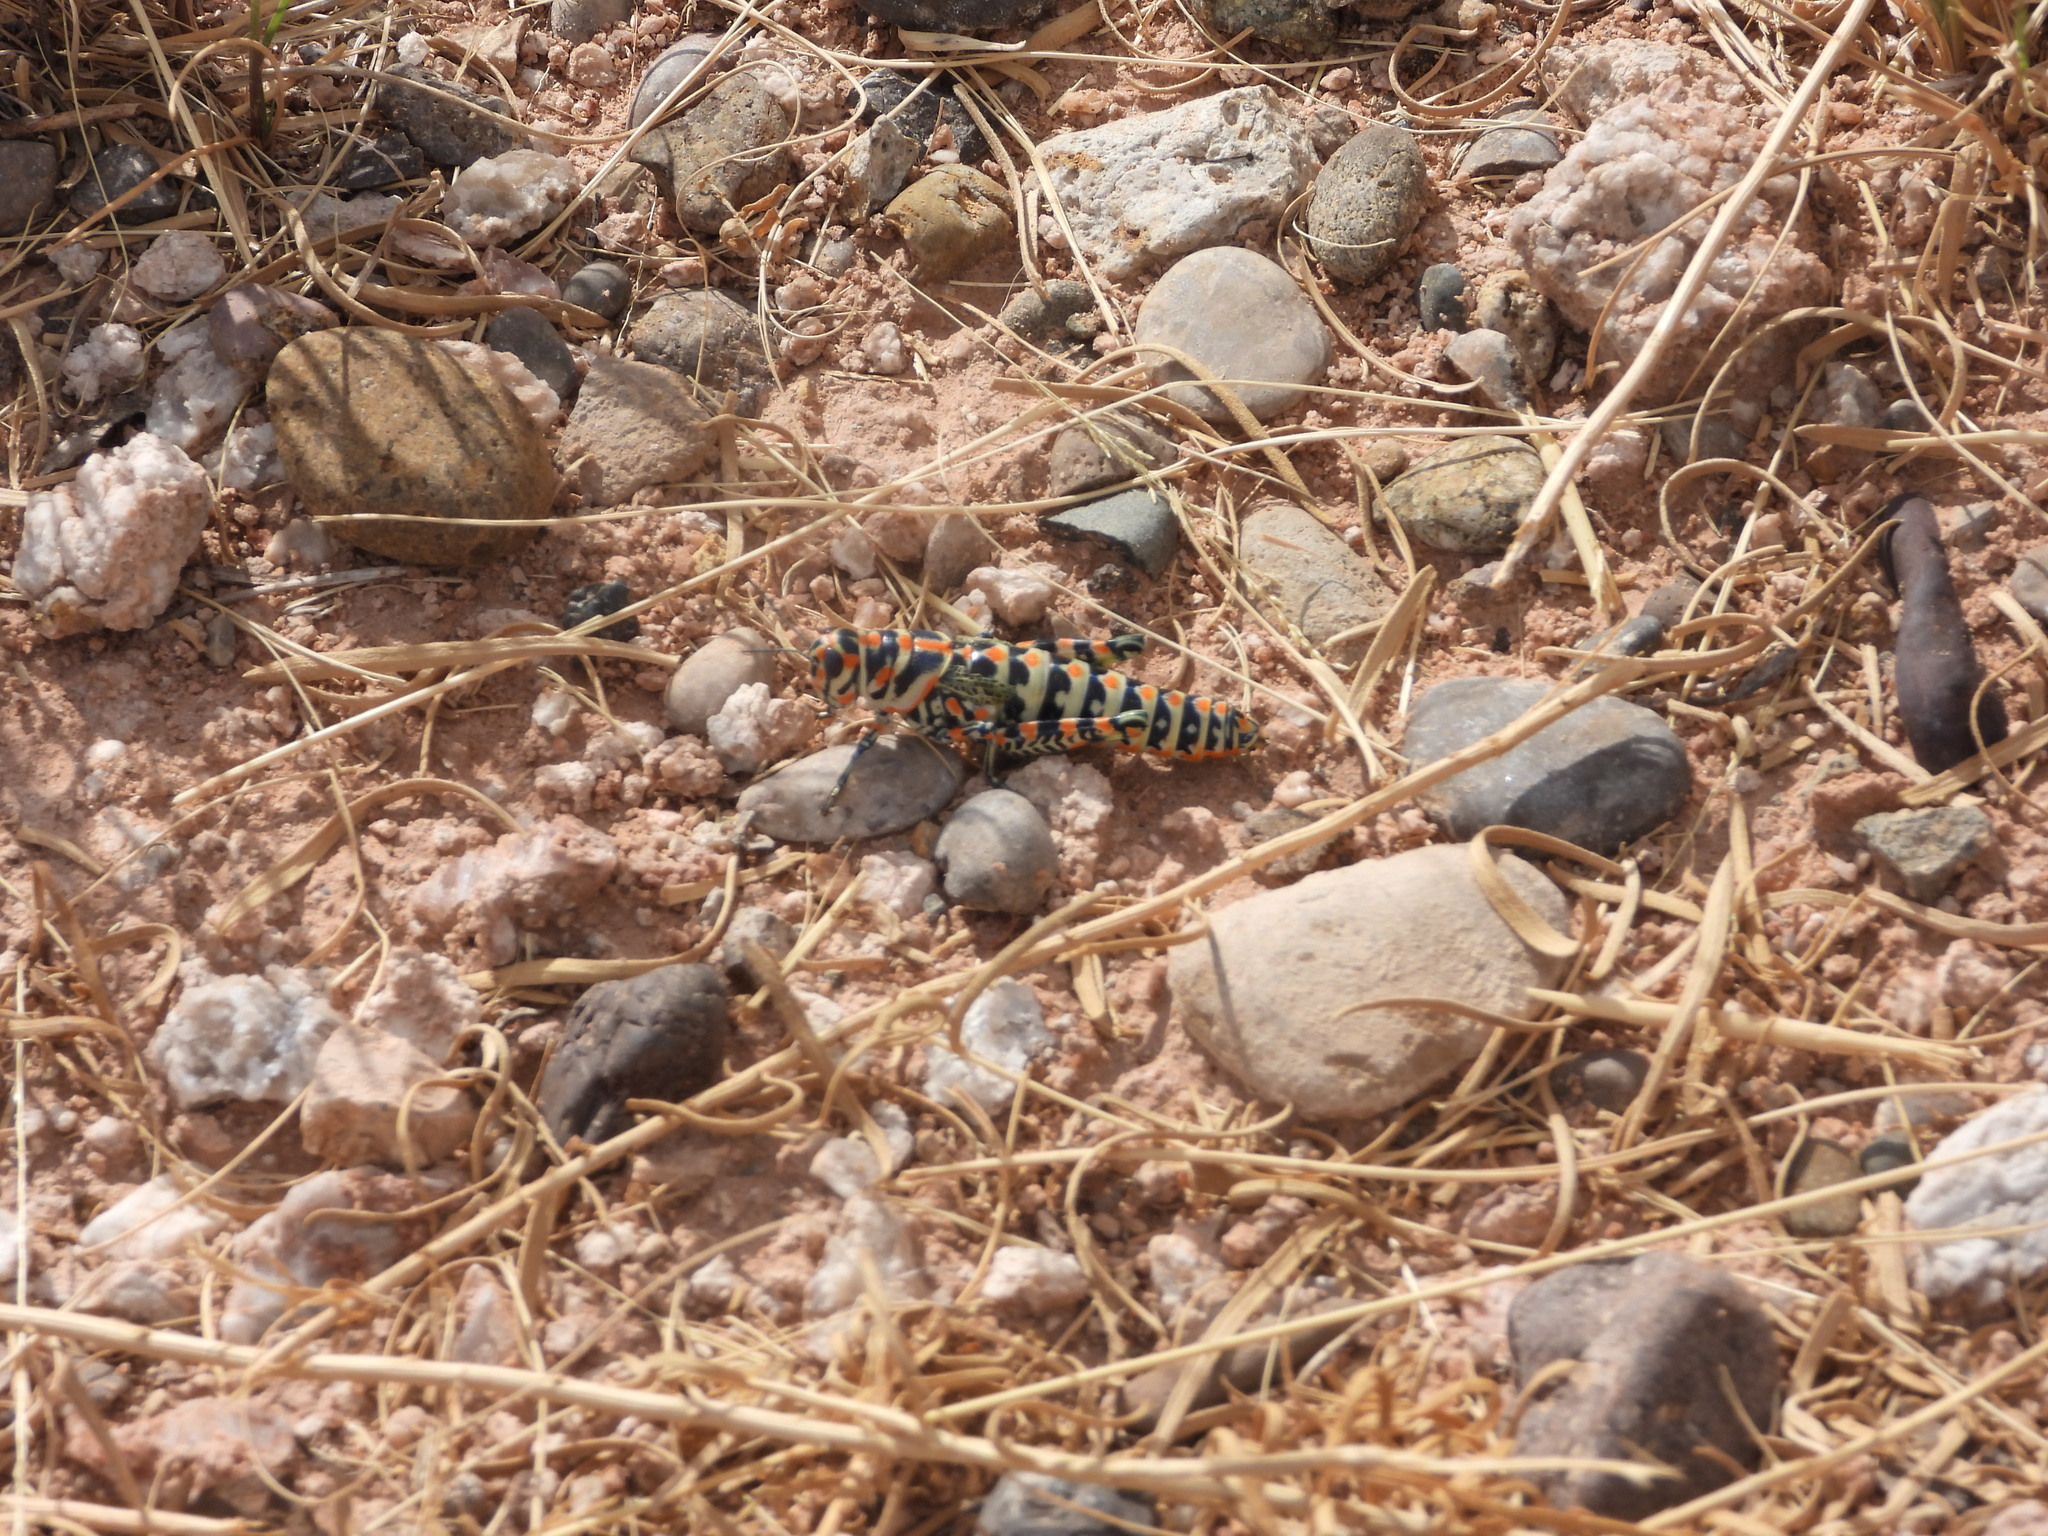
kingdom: Animalia
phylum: Arthropoda
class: Insecta
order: Orthoptera
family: Acrididae
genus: Dactylotum
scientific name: Dactylotum bicolor
